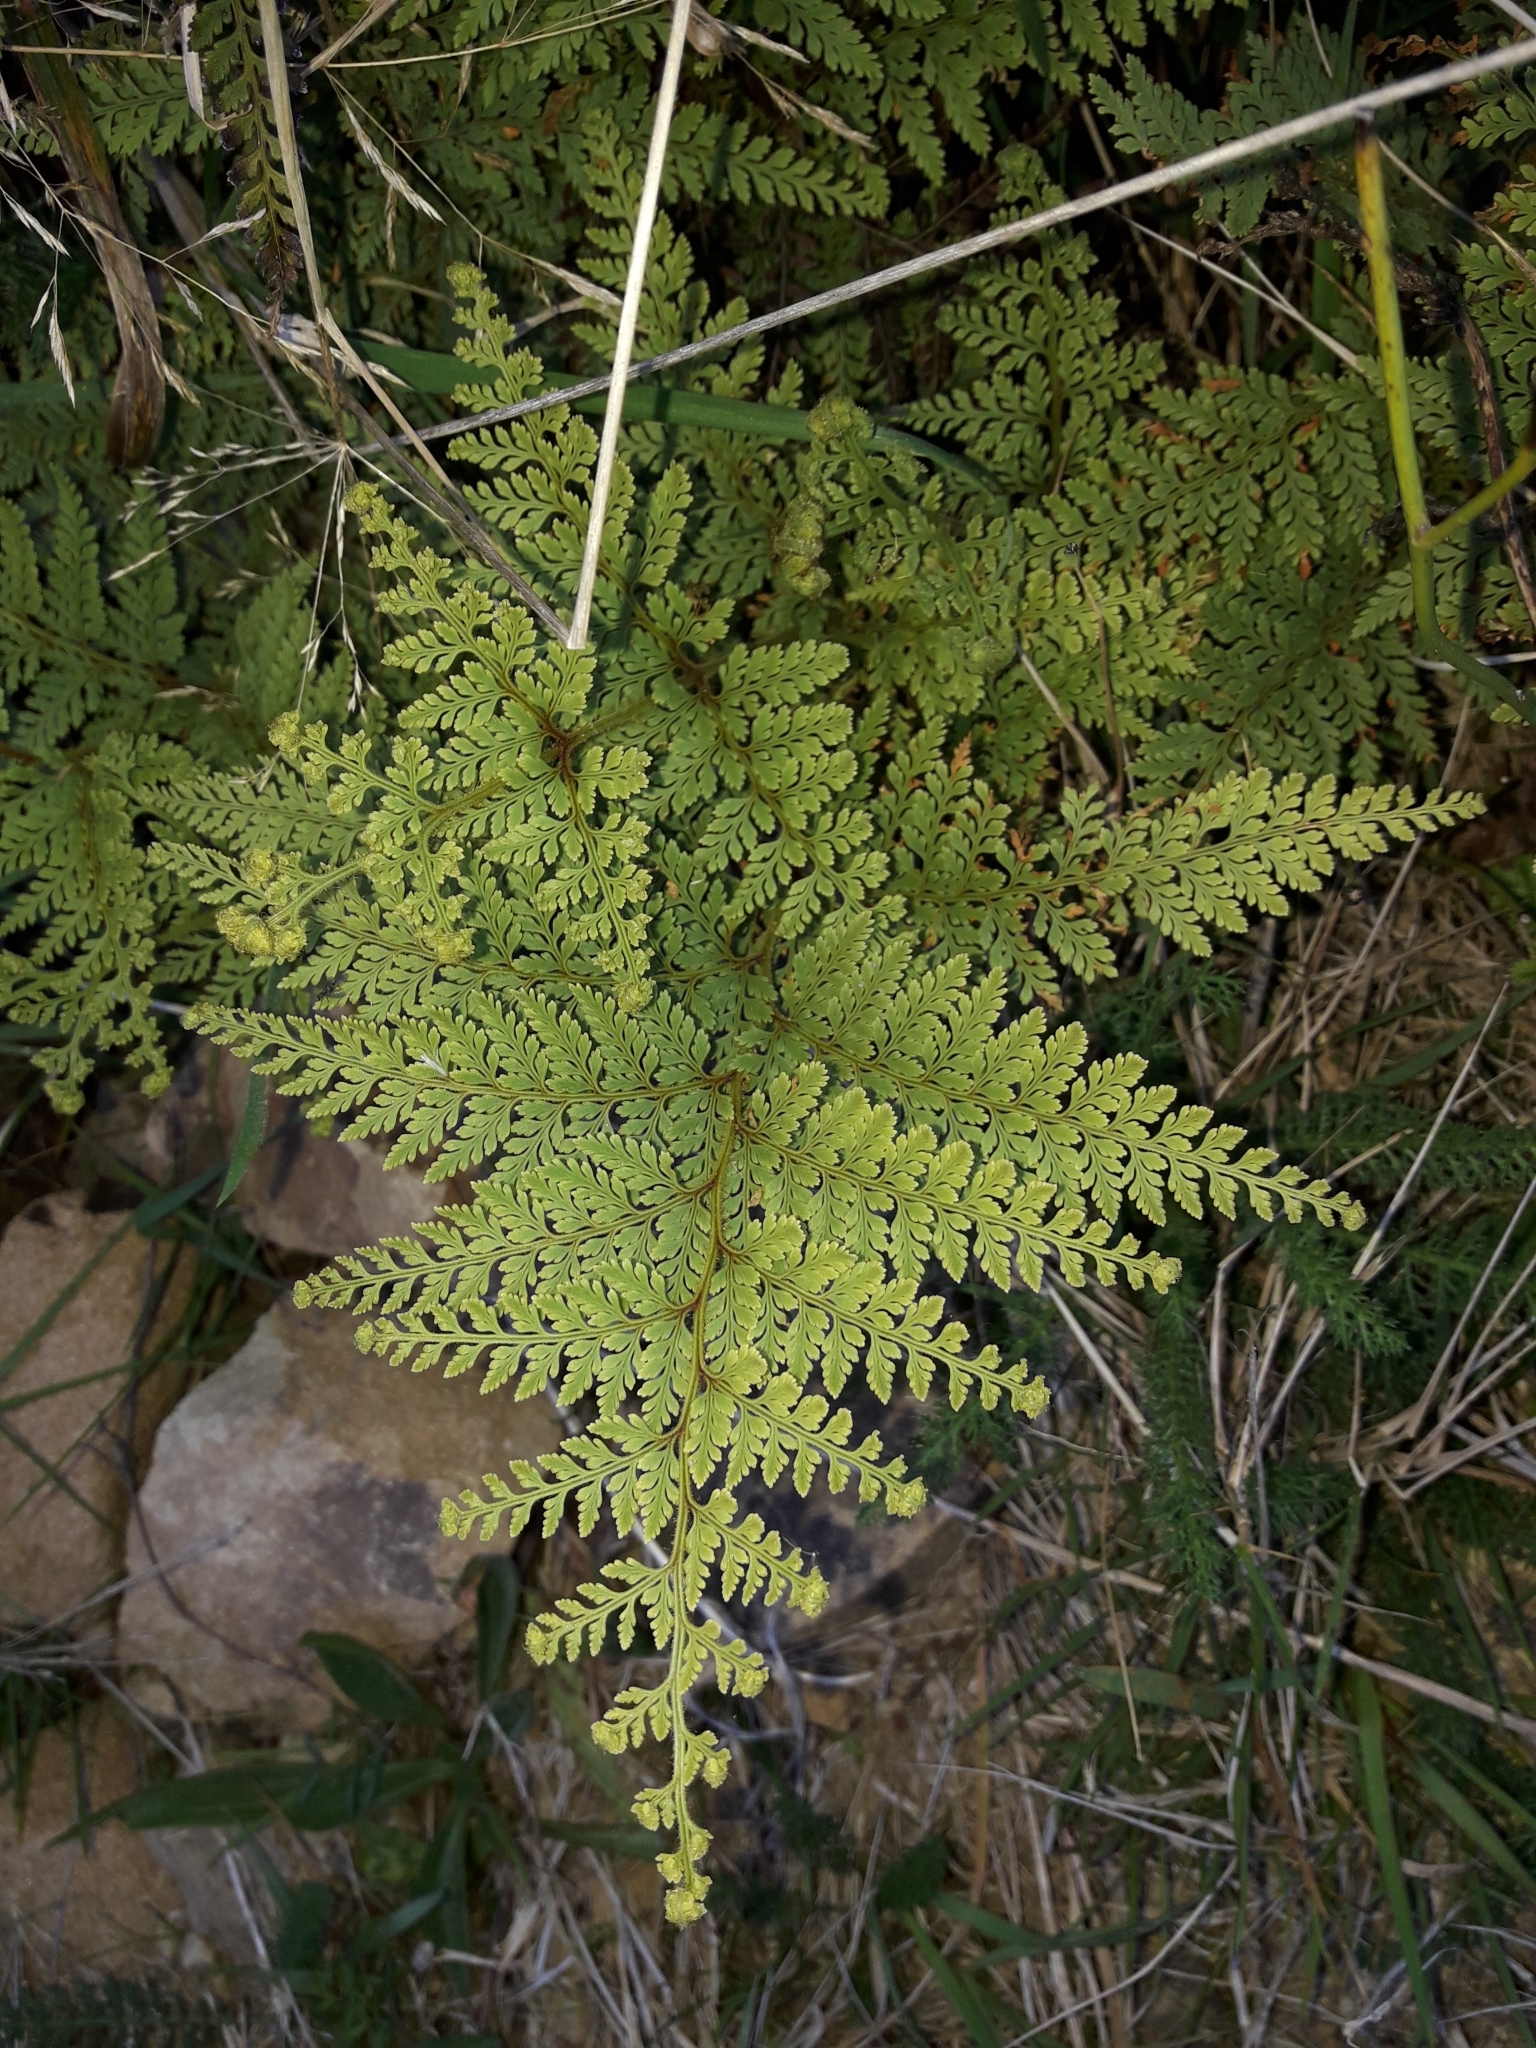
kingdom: Plantae
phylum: Tracheophyta
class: Polypodiopsida
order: Polypodiales
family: Dennstaedtiaceae
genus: Paesia
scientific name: Paesia scaberula
